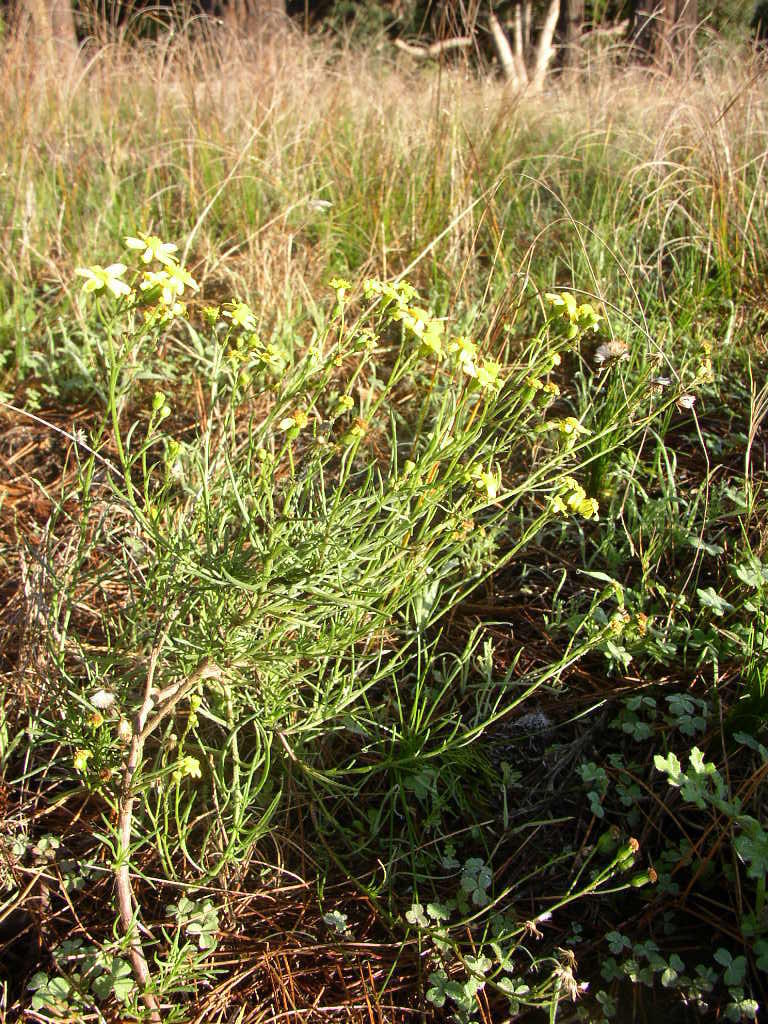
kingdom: Plantae
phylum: Tracheophyta
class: Magnoliopsida
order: Brassicales
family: Brassicaceae
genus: Raphanus
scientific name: Raphanus raphanistrum
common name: Wild radish
